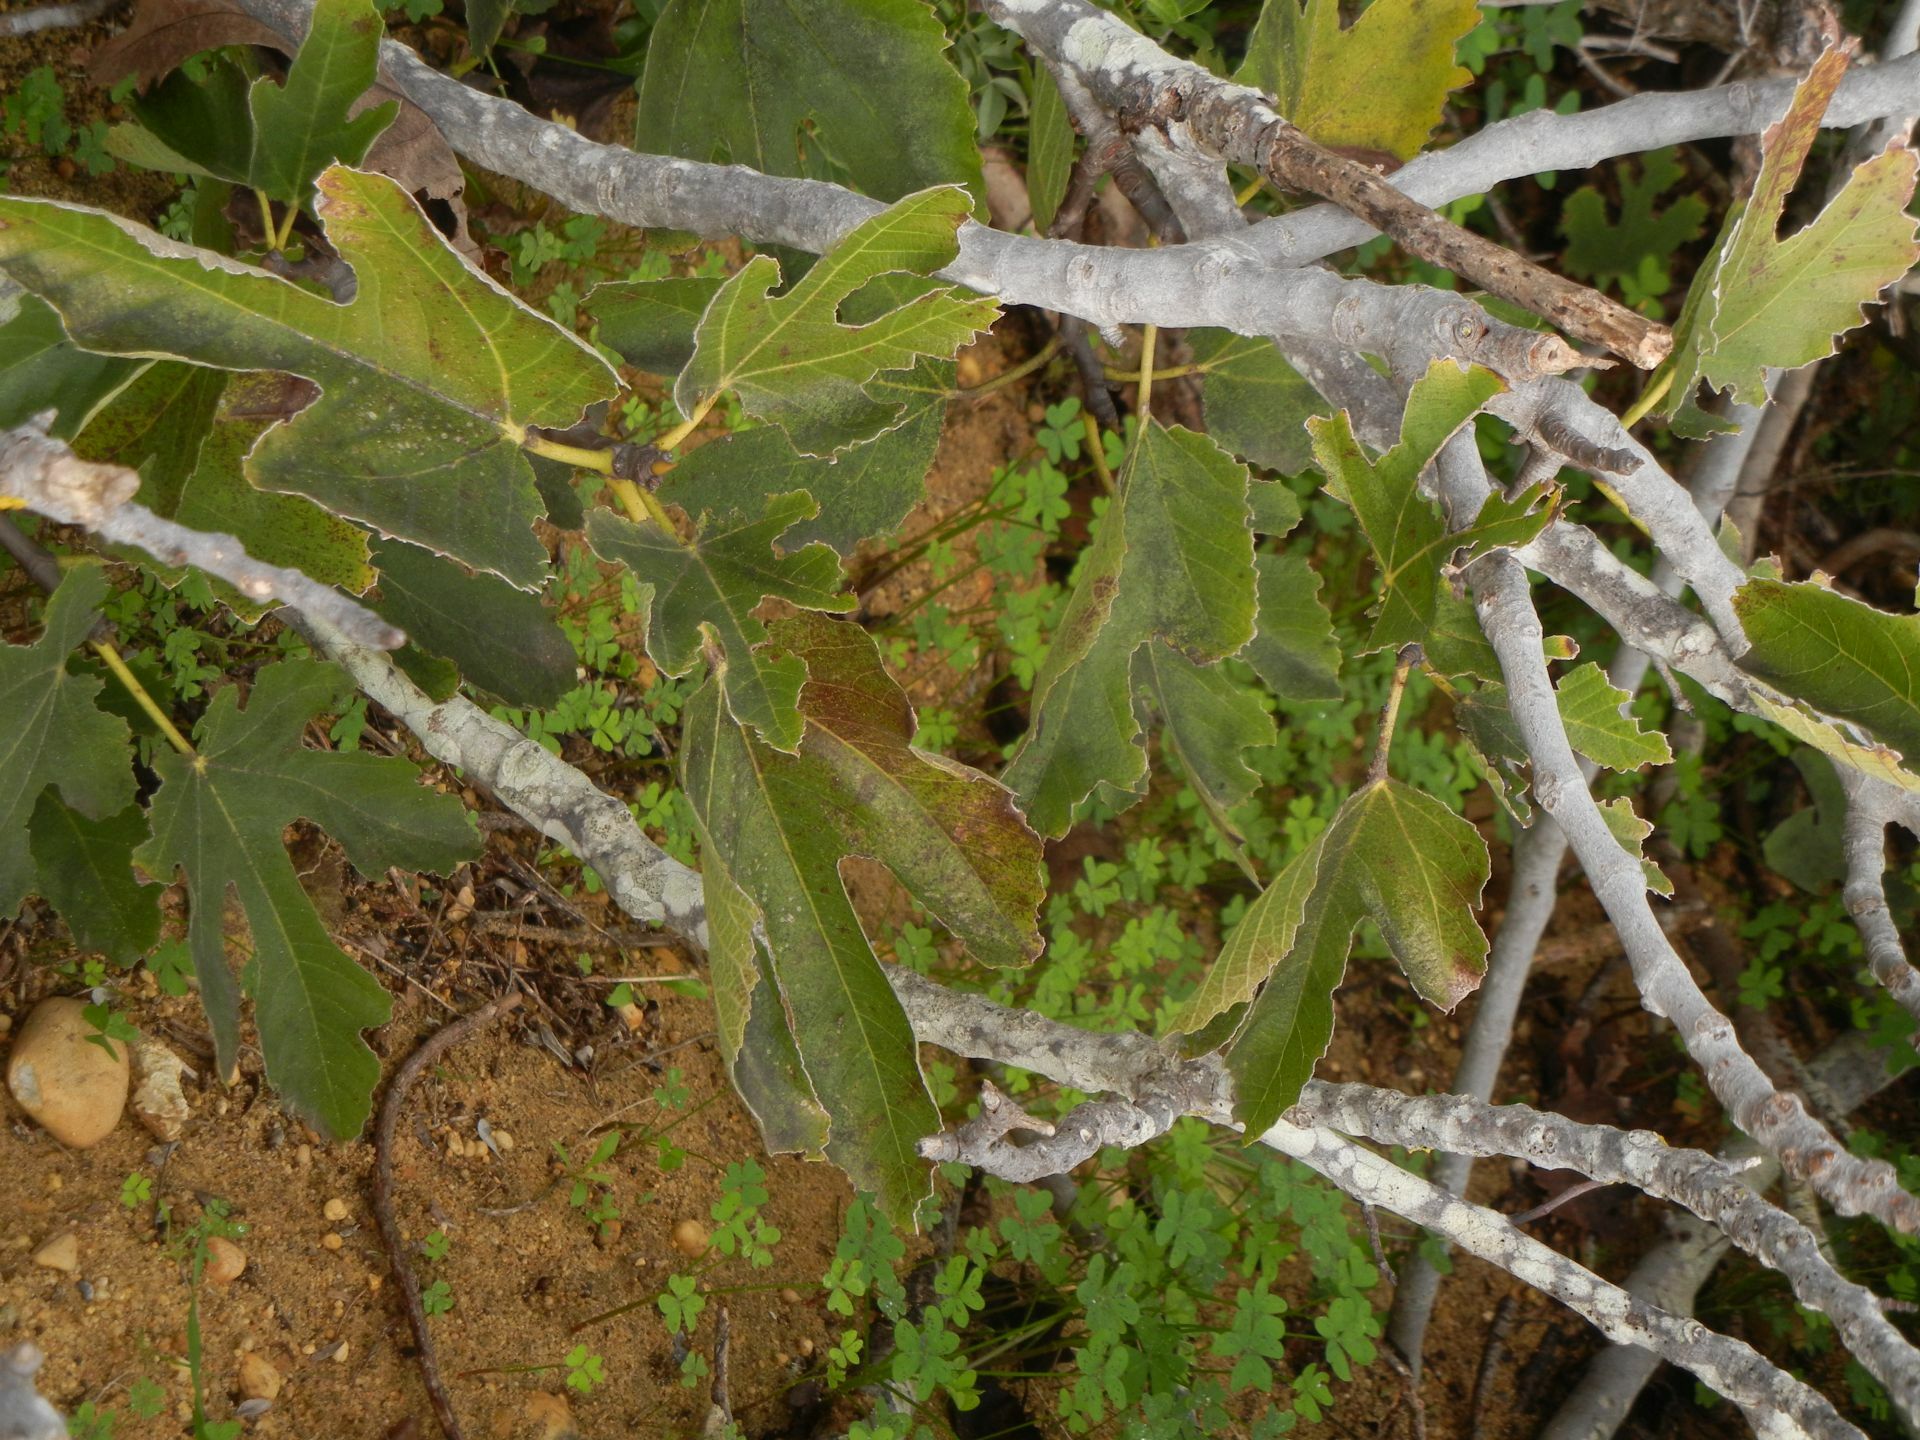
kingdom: Plantae
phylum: Tracheophyta
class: Magnoliopsida
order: Rosales
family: Moraceae
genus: Ficus
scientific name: Ficus carica
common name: Fig
